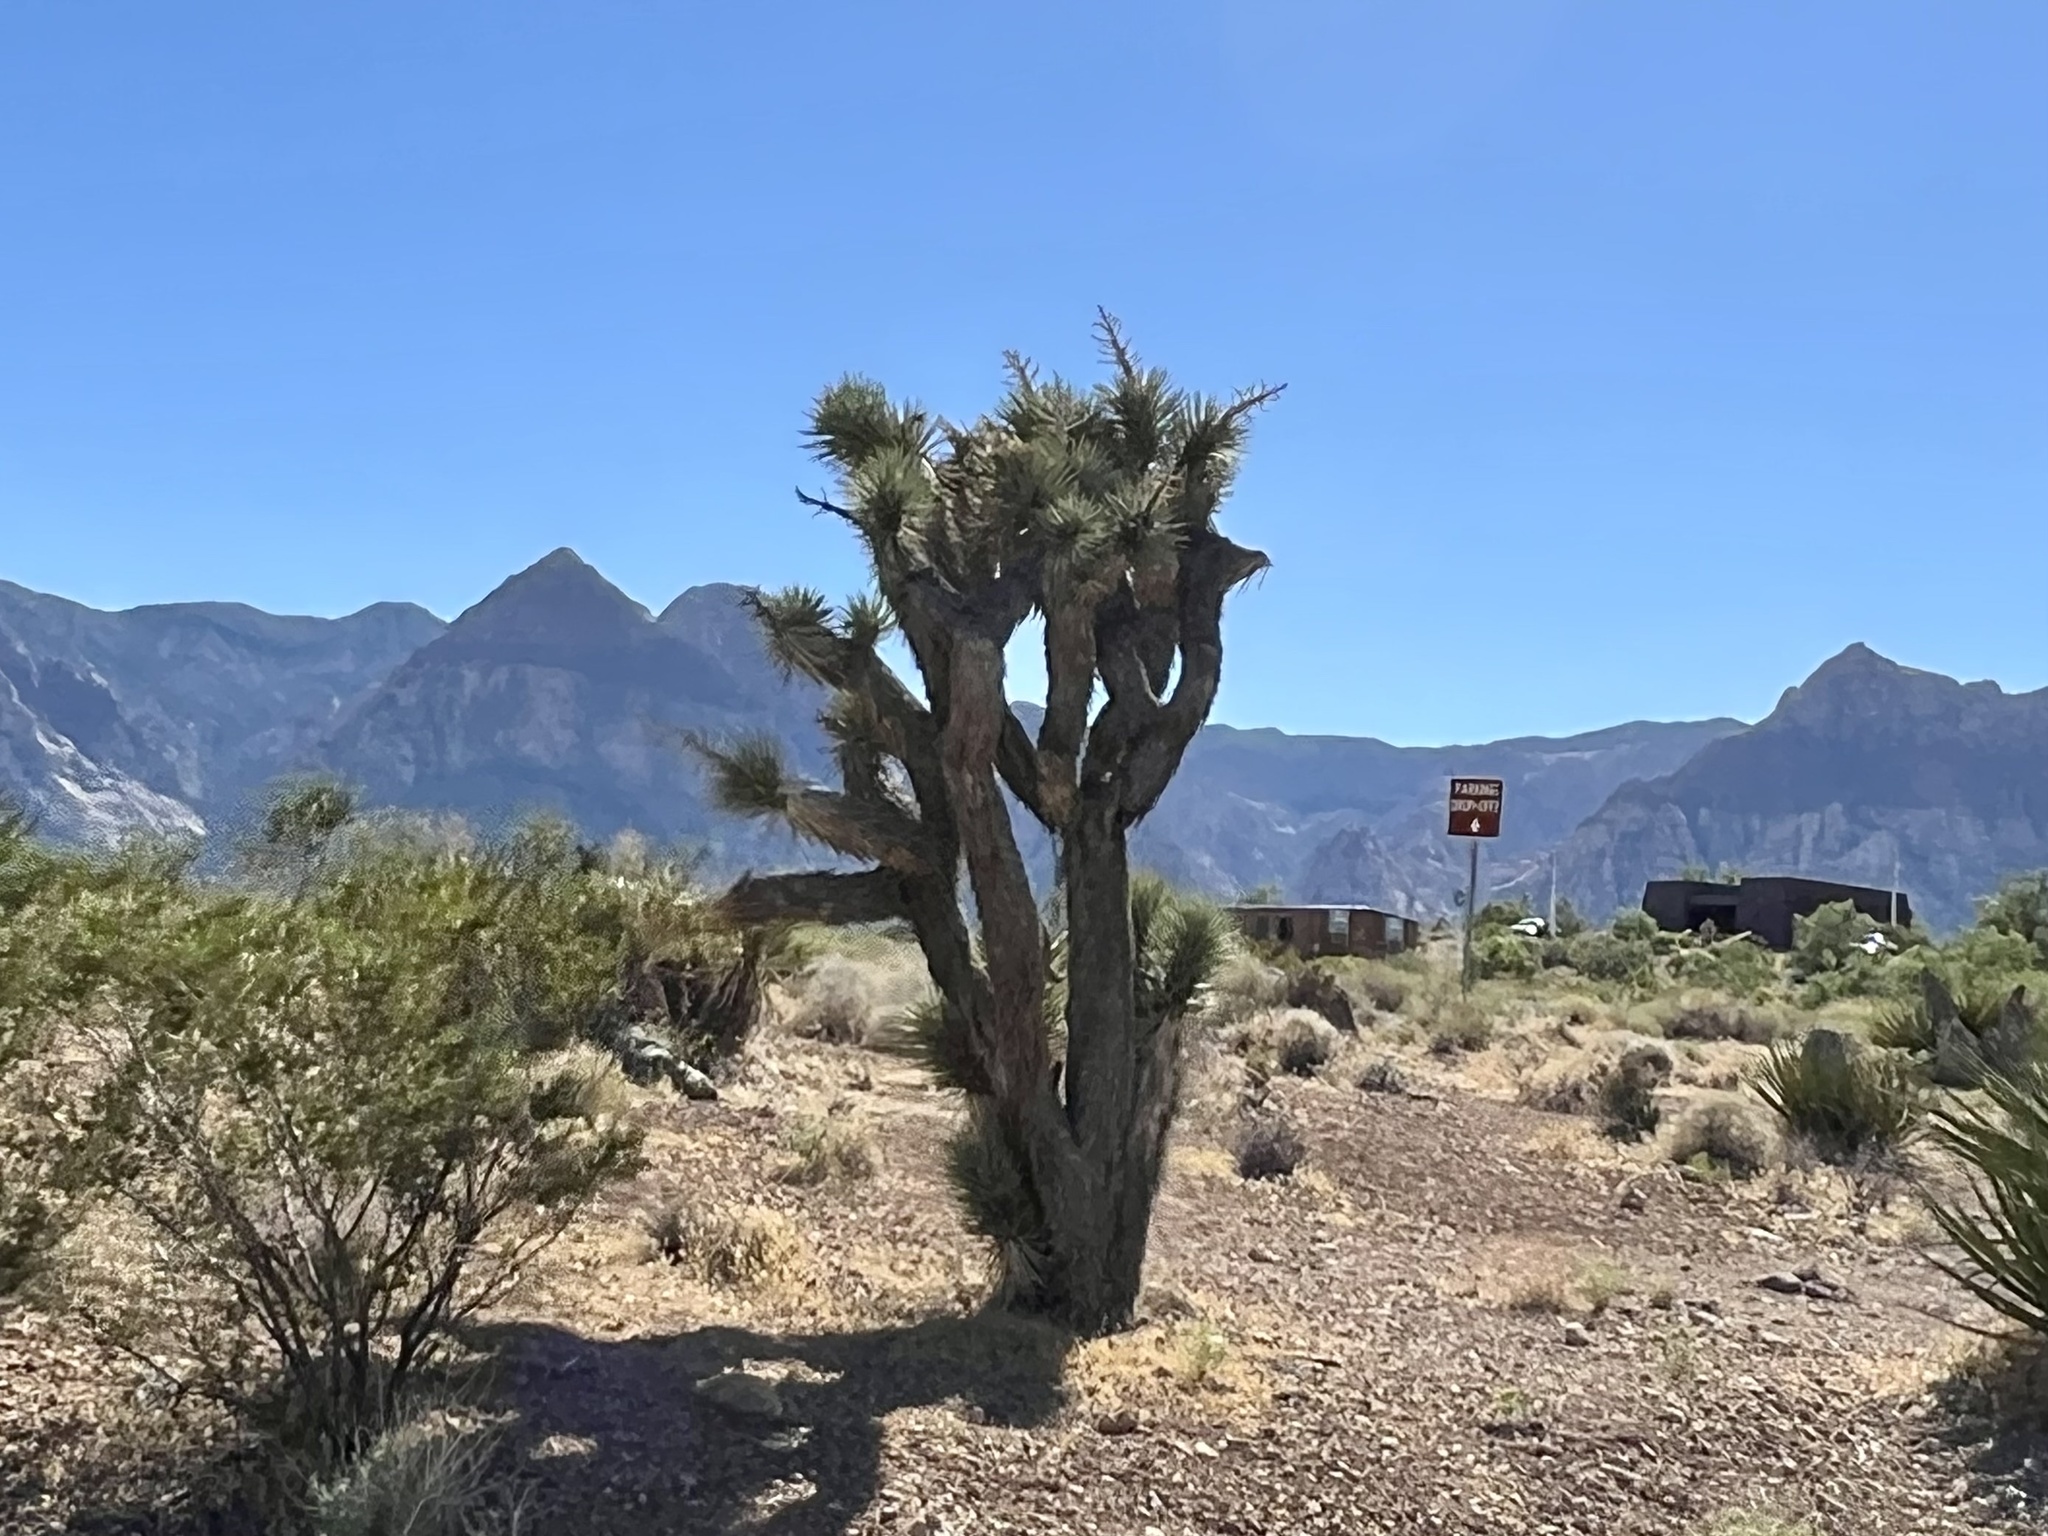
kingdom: Plantae
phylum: Tracheophyta
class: Liliopsida
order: Asparagales
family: Asparagaceae
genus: Yucca
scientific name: Yucca brevifolia
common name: Joshua tree
